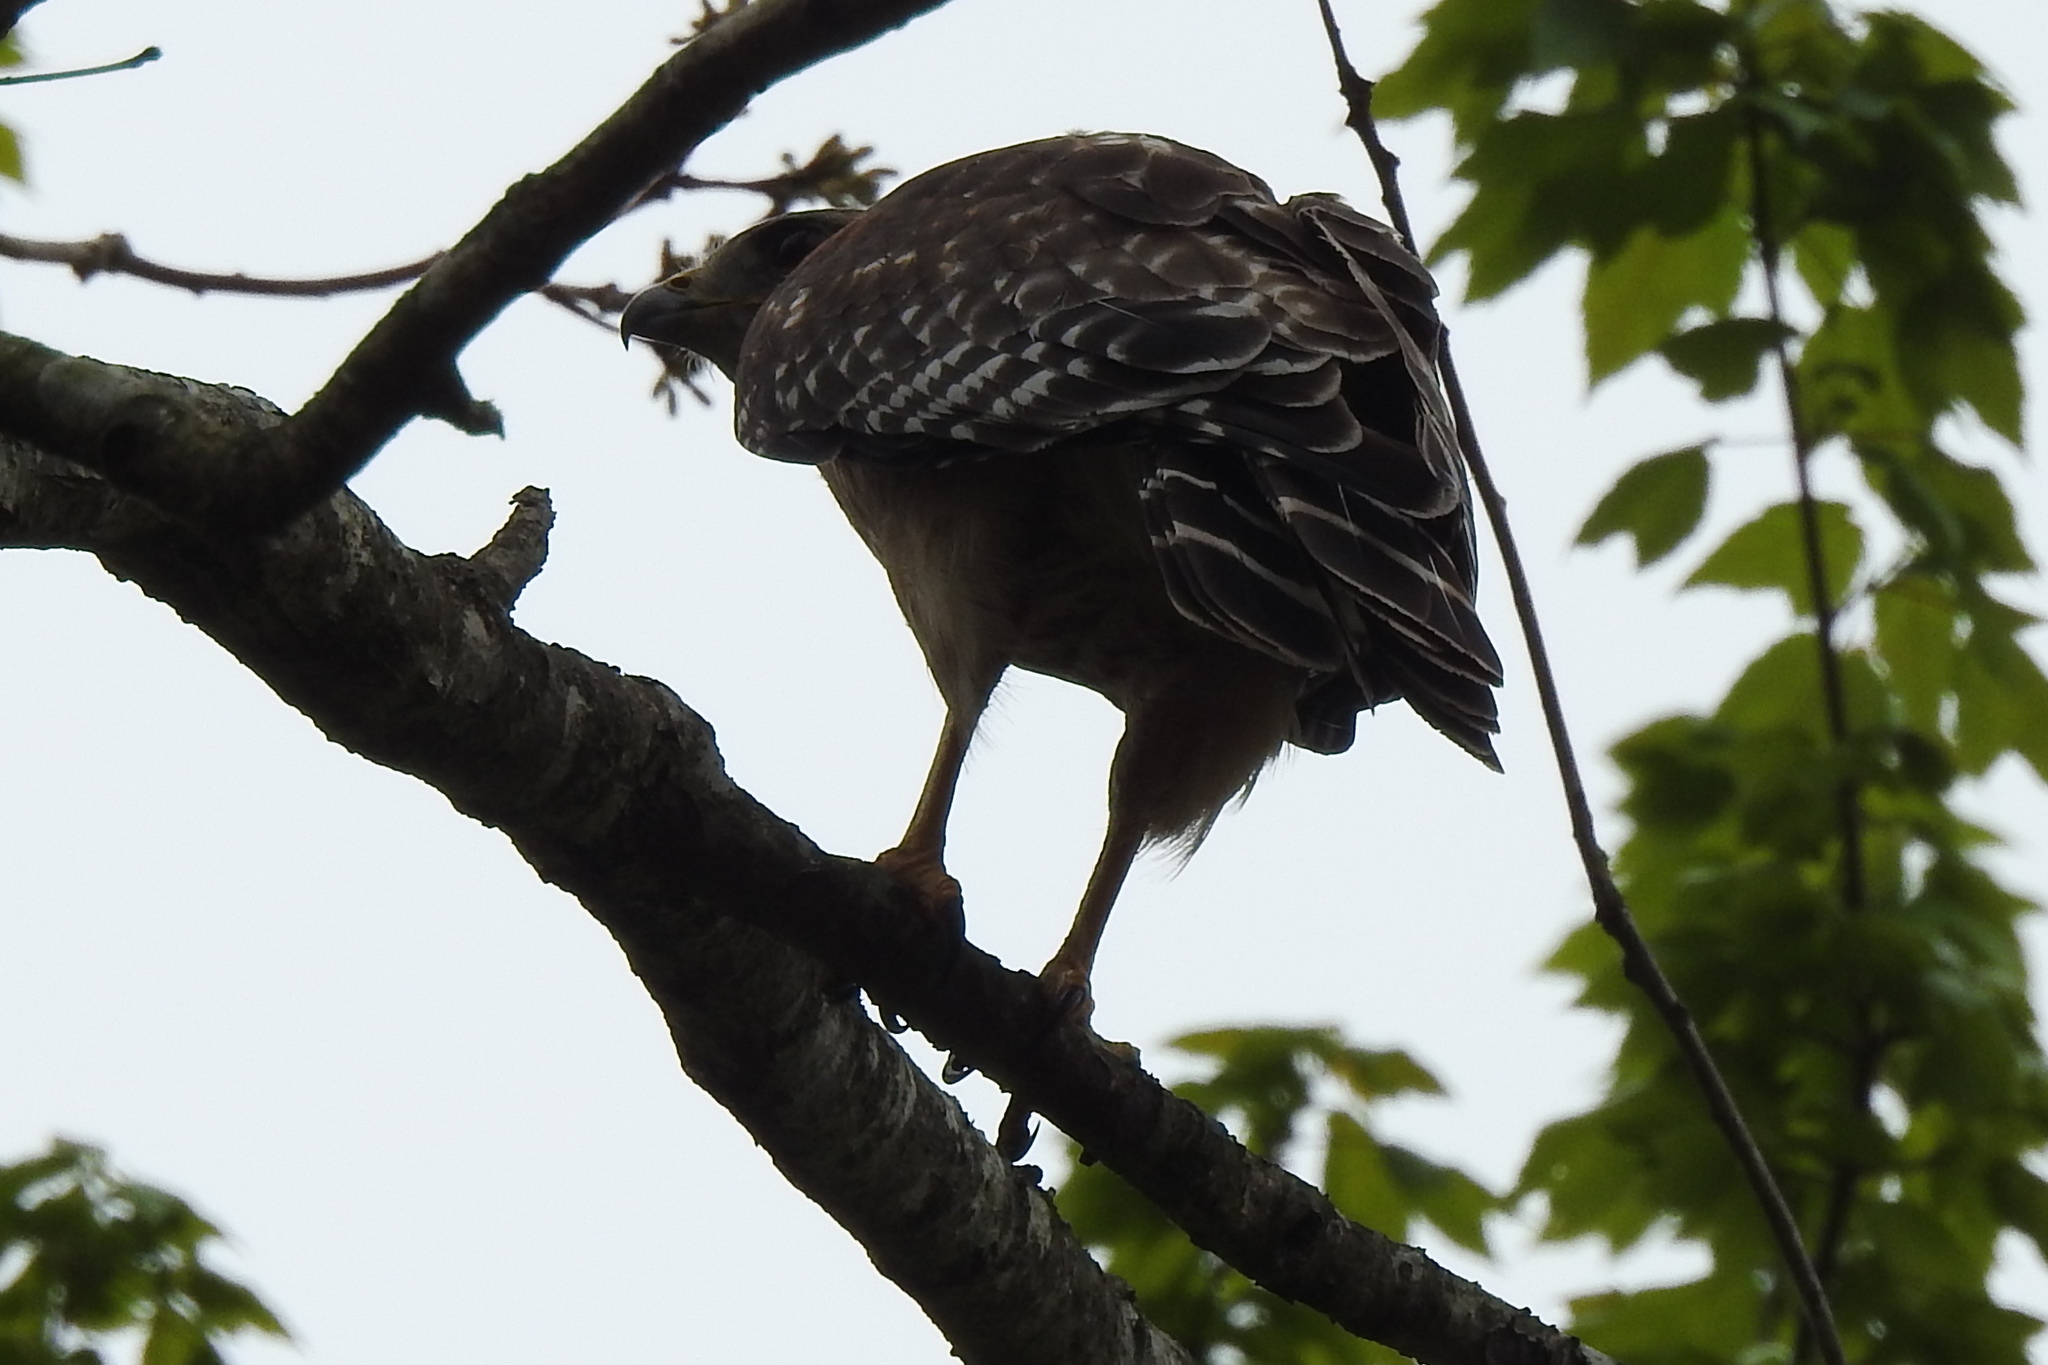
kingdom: Animalia
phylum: Chordata
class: Aves
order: Accipitriformes
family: Accipitridae
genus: Buteo
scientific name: Buteo lineatus
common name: Red-shouldered hawk
